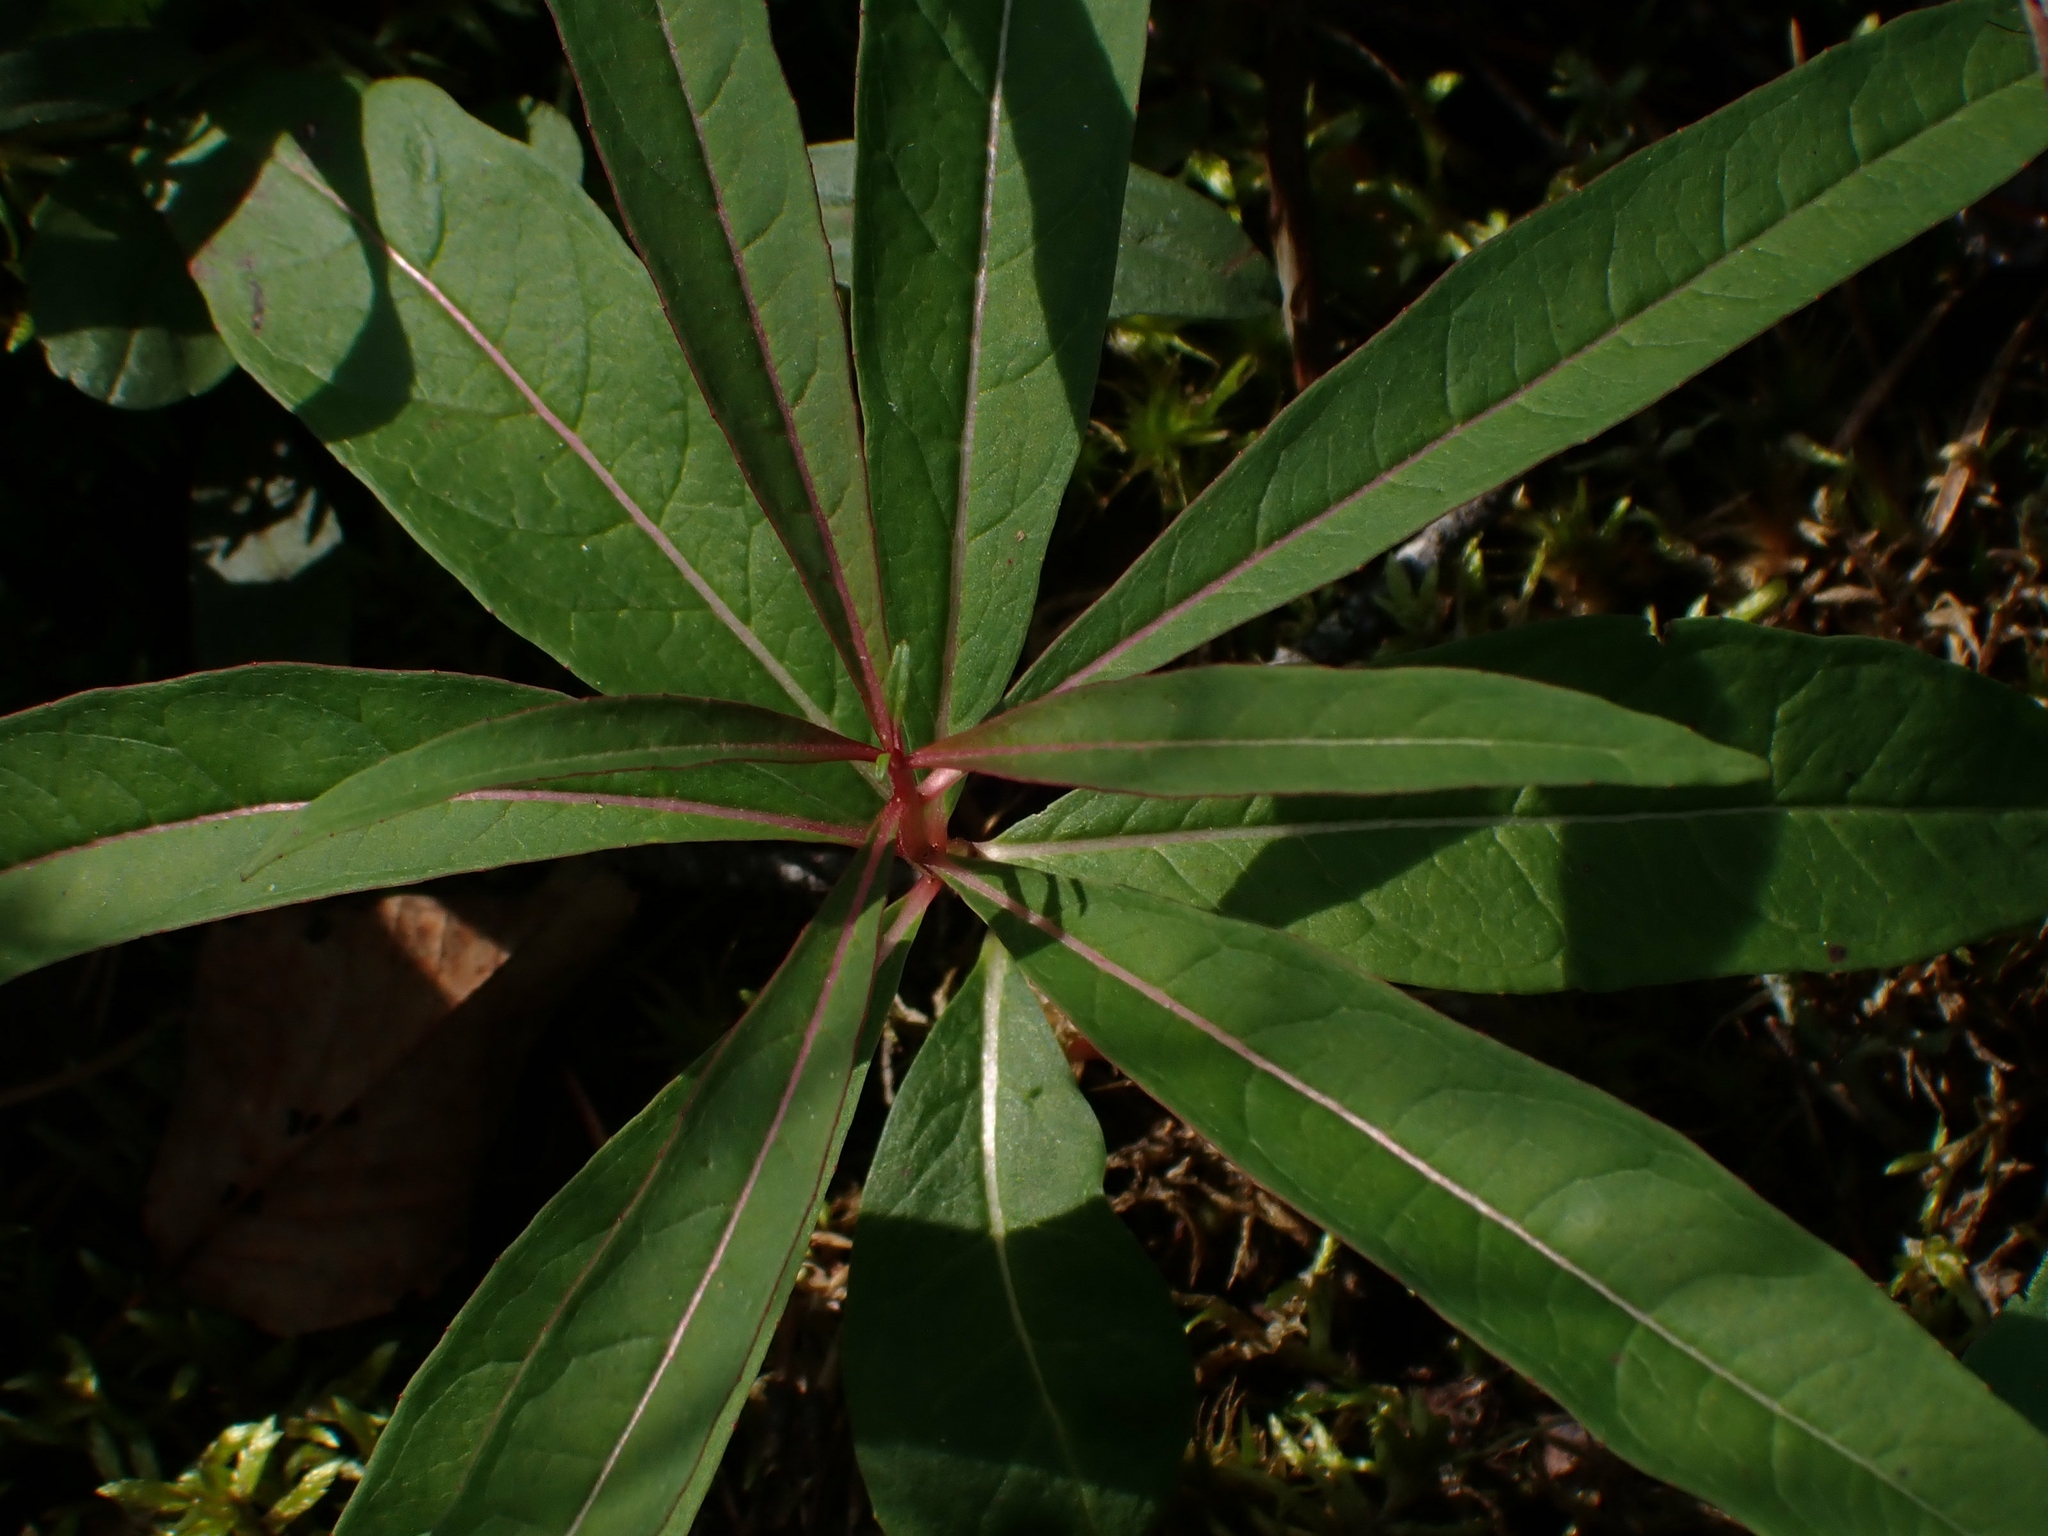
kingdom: Plantae
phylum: Tracheophyta
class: Magnoliopsida
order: Myrtales
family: Onagraceae
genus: Chamaenerion
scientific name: Chamaenerion angustifolium
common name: Fireweed
